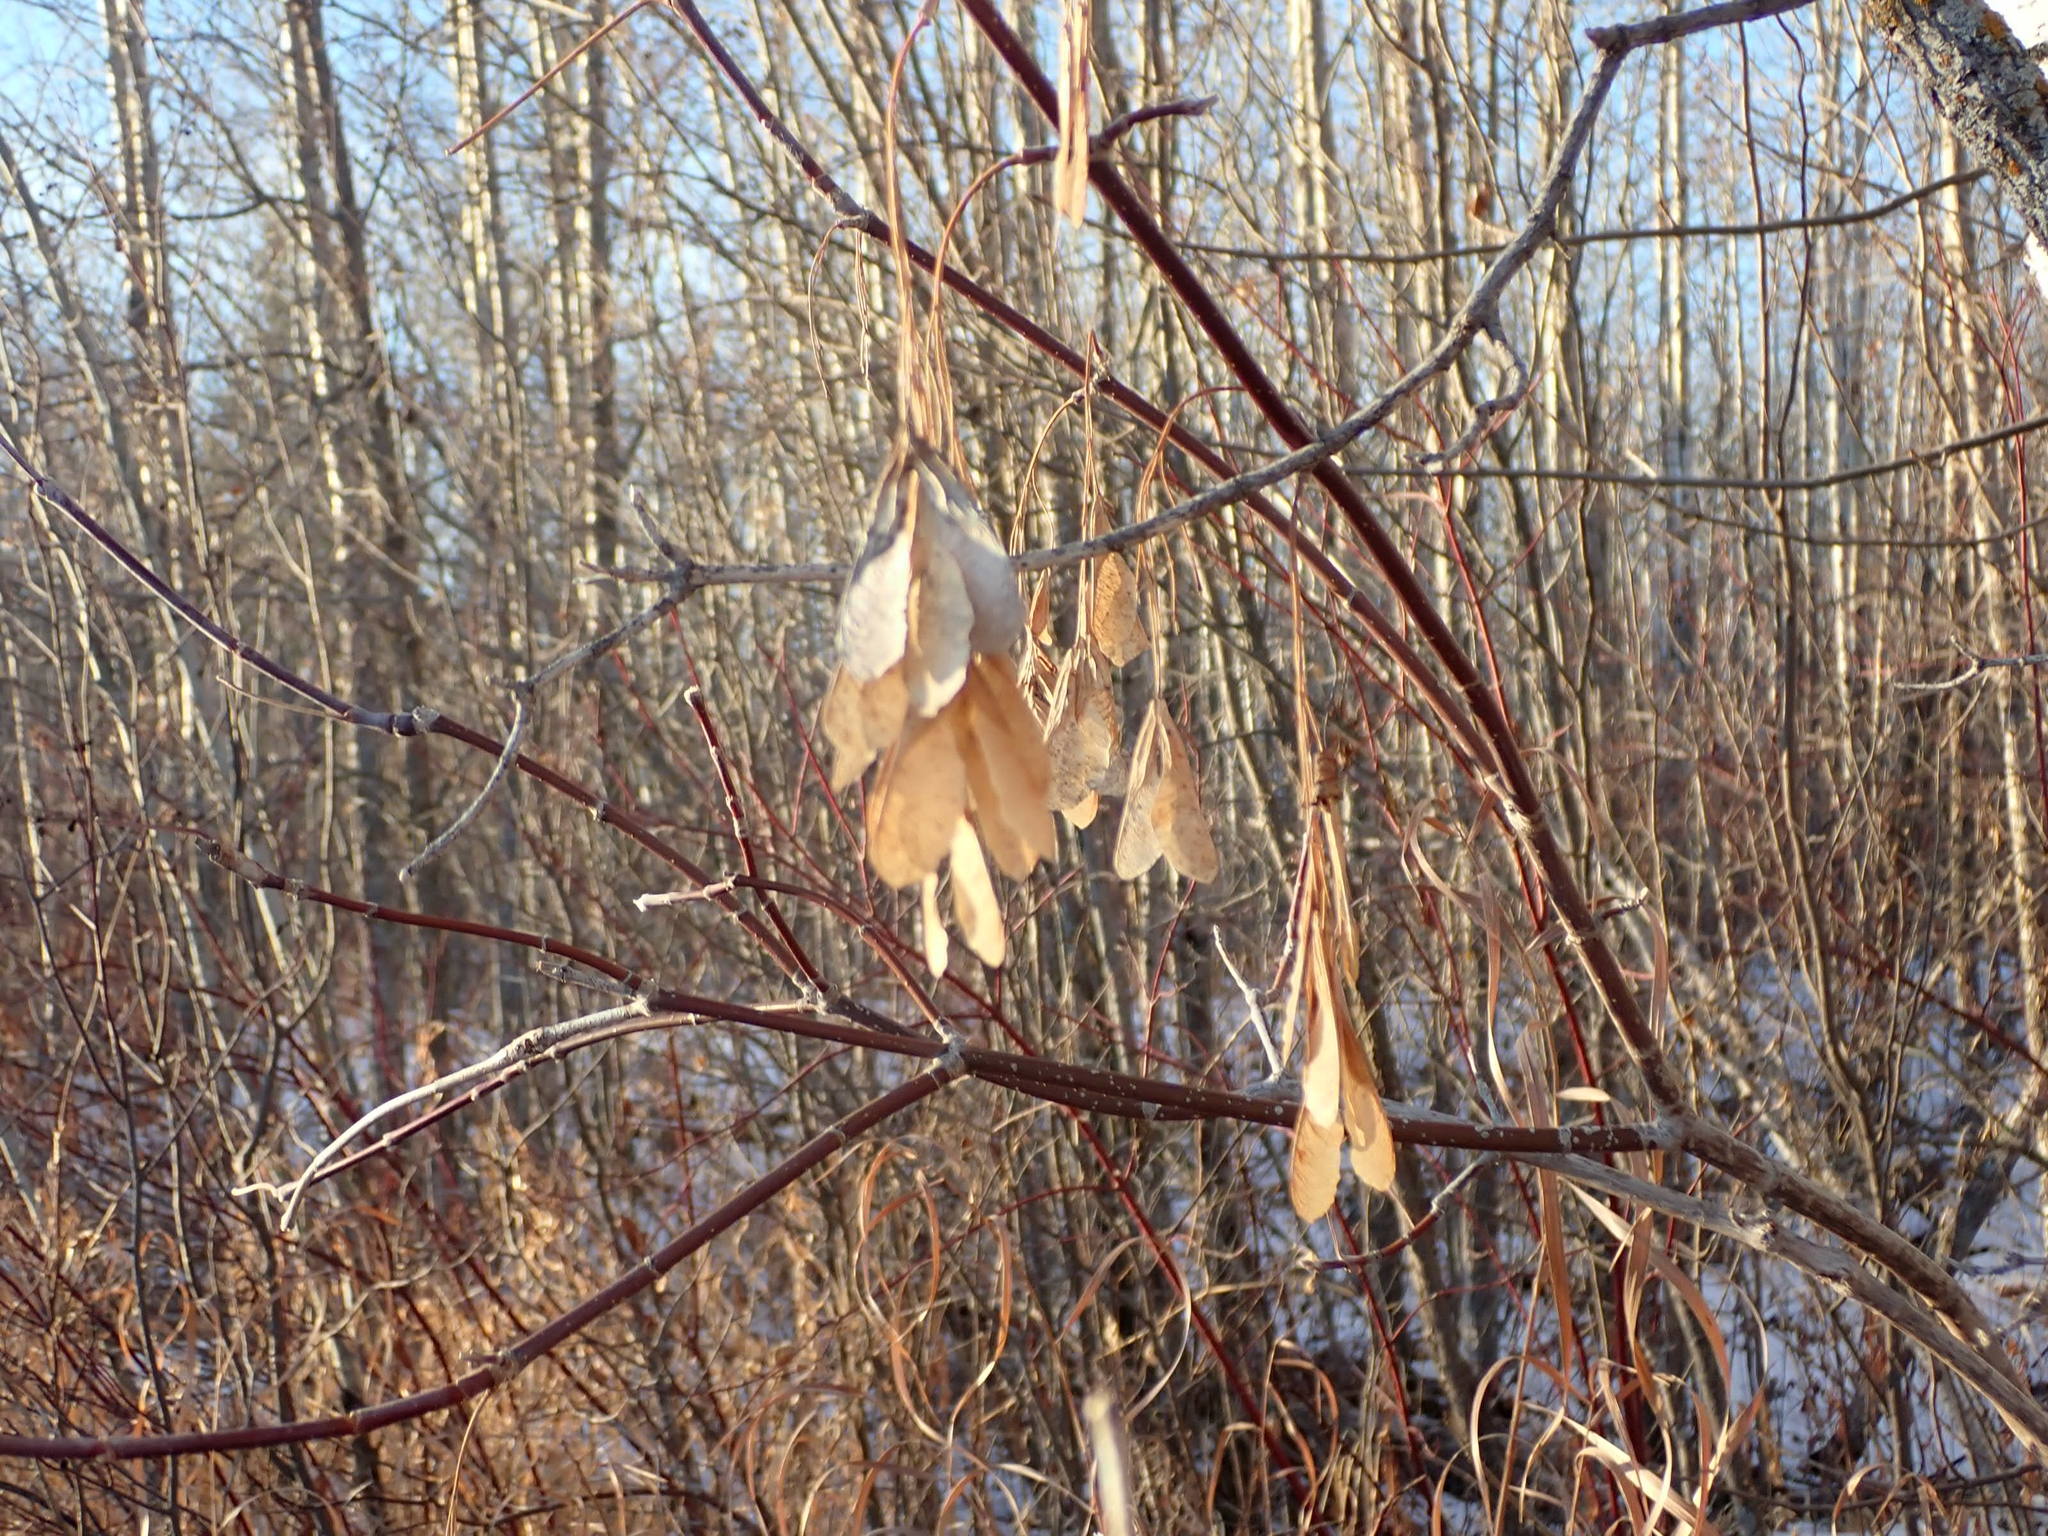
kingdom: Plantae
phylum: Tracheophyta
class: Magnoliopsida
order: Sapindales
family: Sapindaceae
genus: Acer
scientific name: Acer negundo
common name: Ashleaf maple
